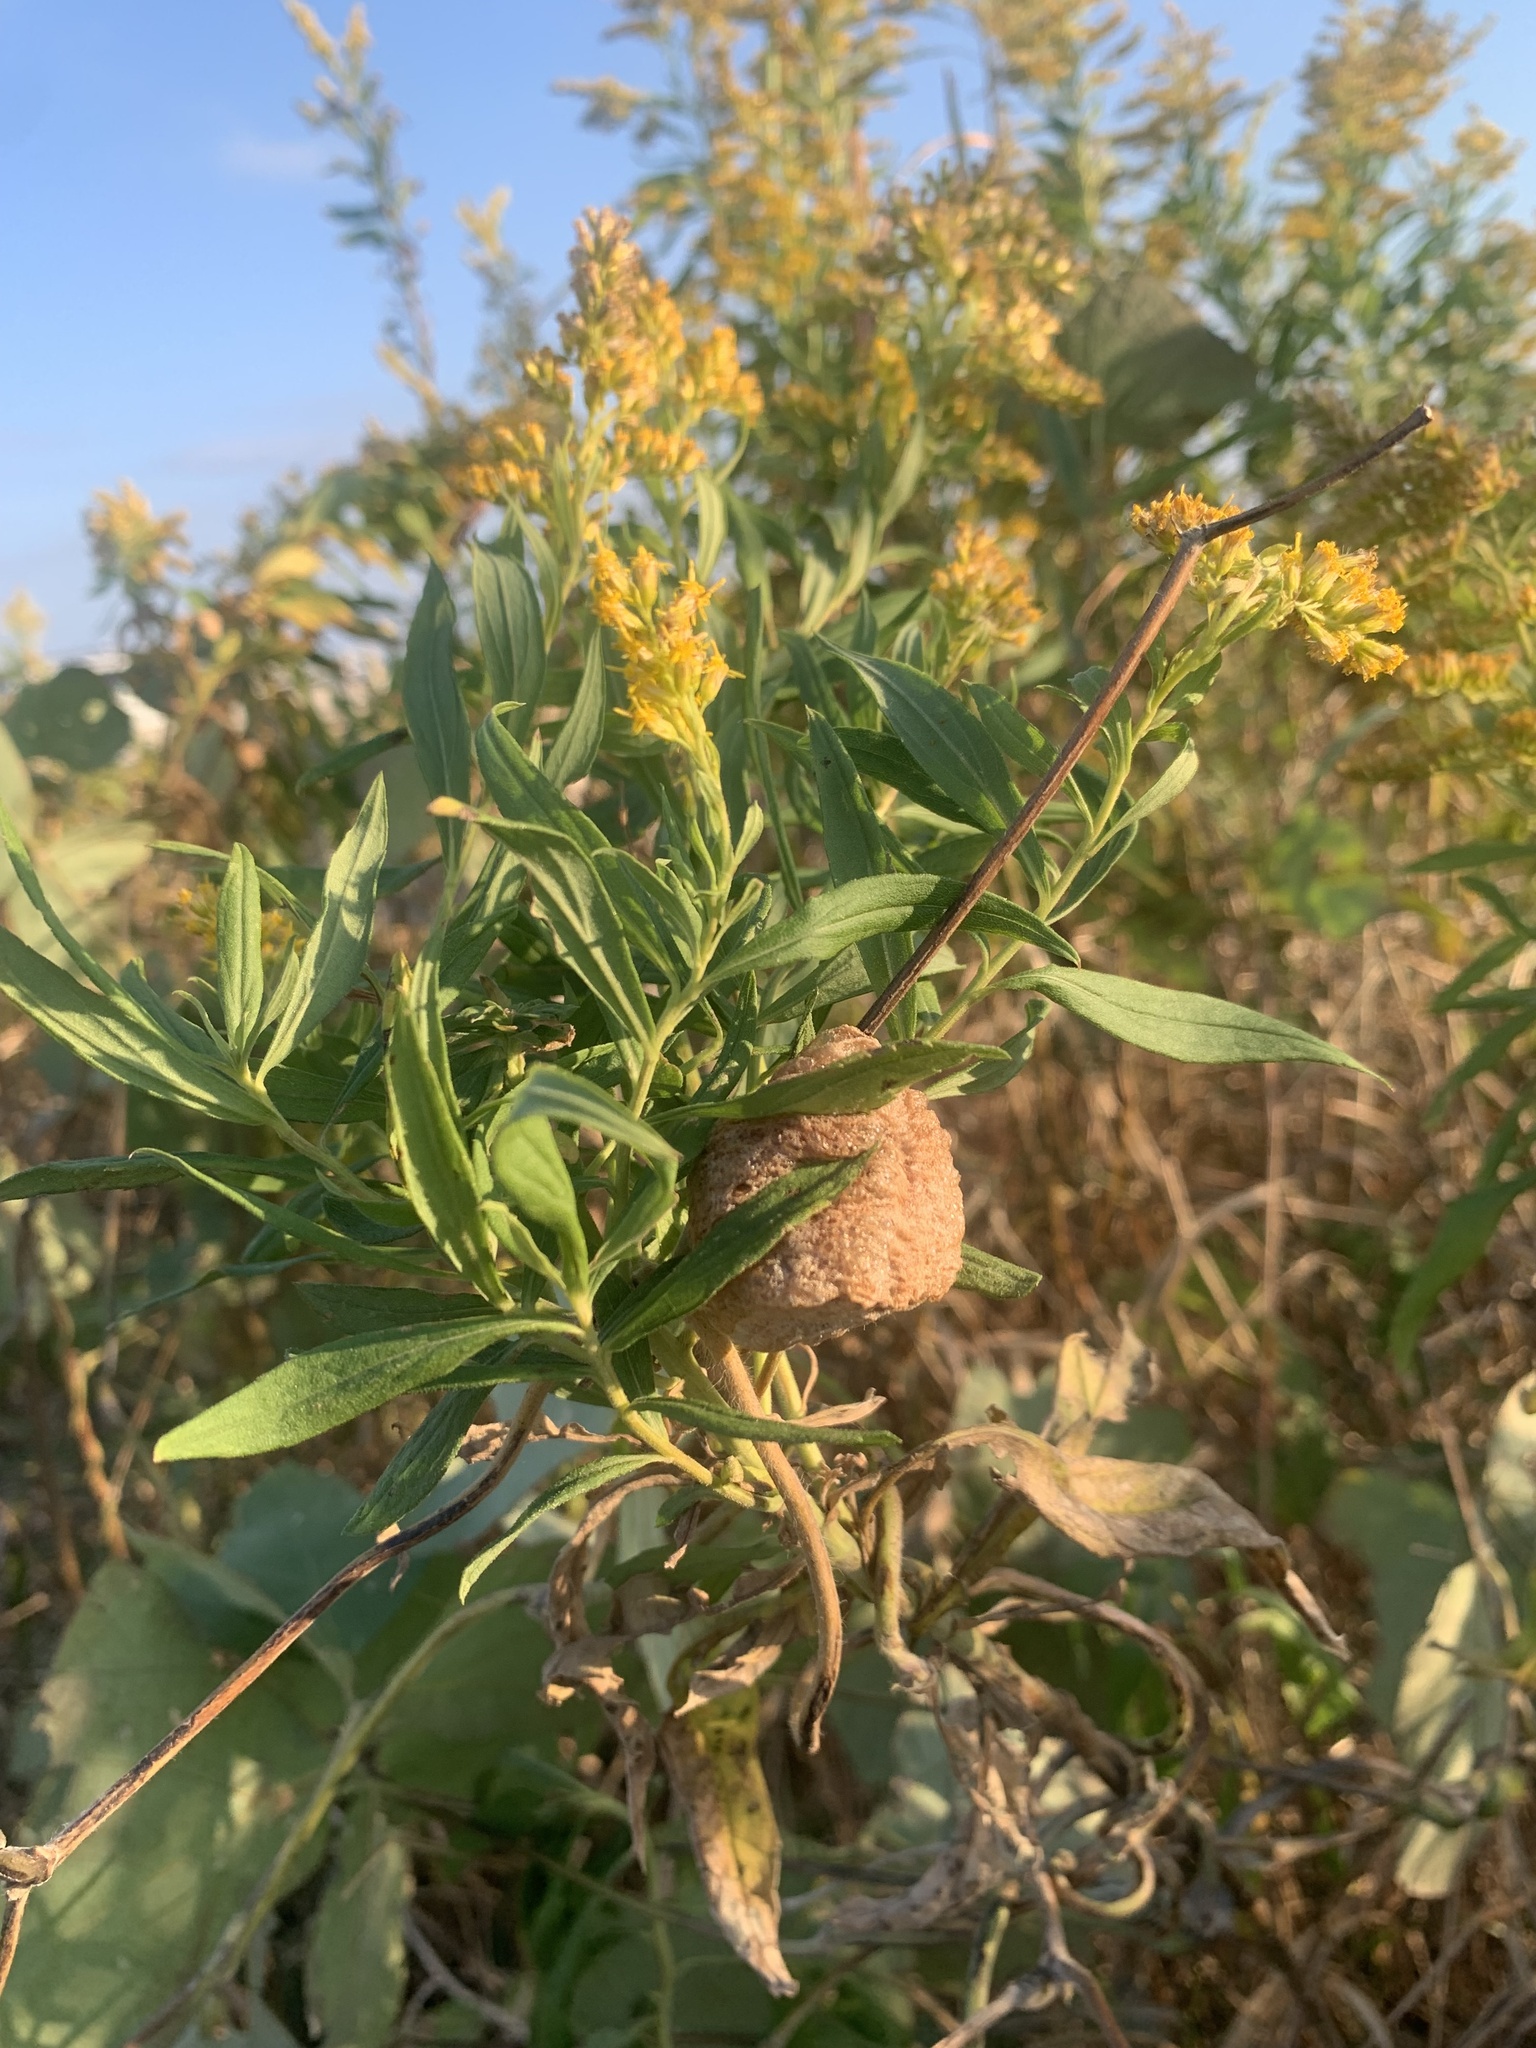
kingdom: Animalia
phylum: Arthropoda
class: Insecta
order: Mantodea
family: Mantidae
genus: Tenodera
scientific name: Tenodera sinensis
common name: Chinese mantis
